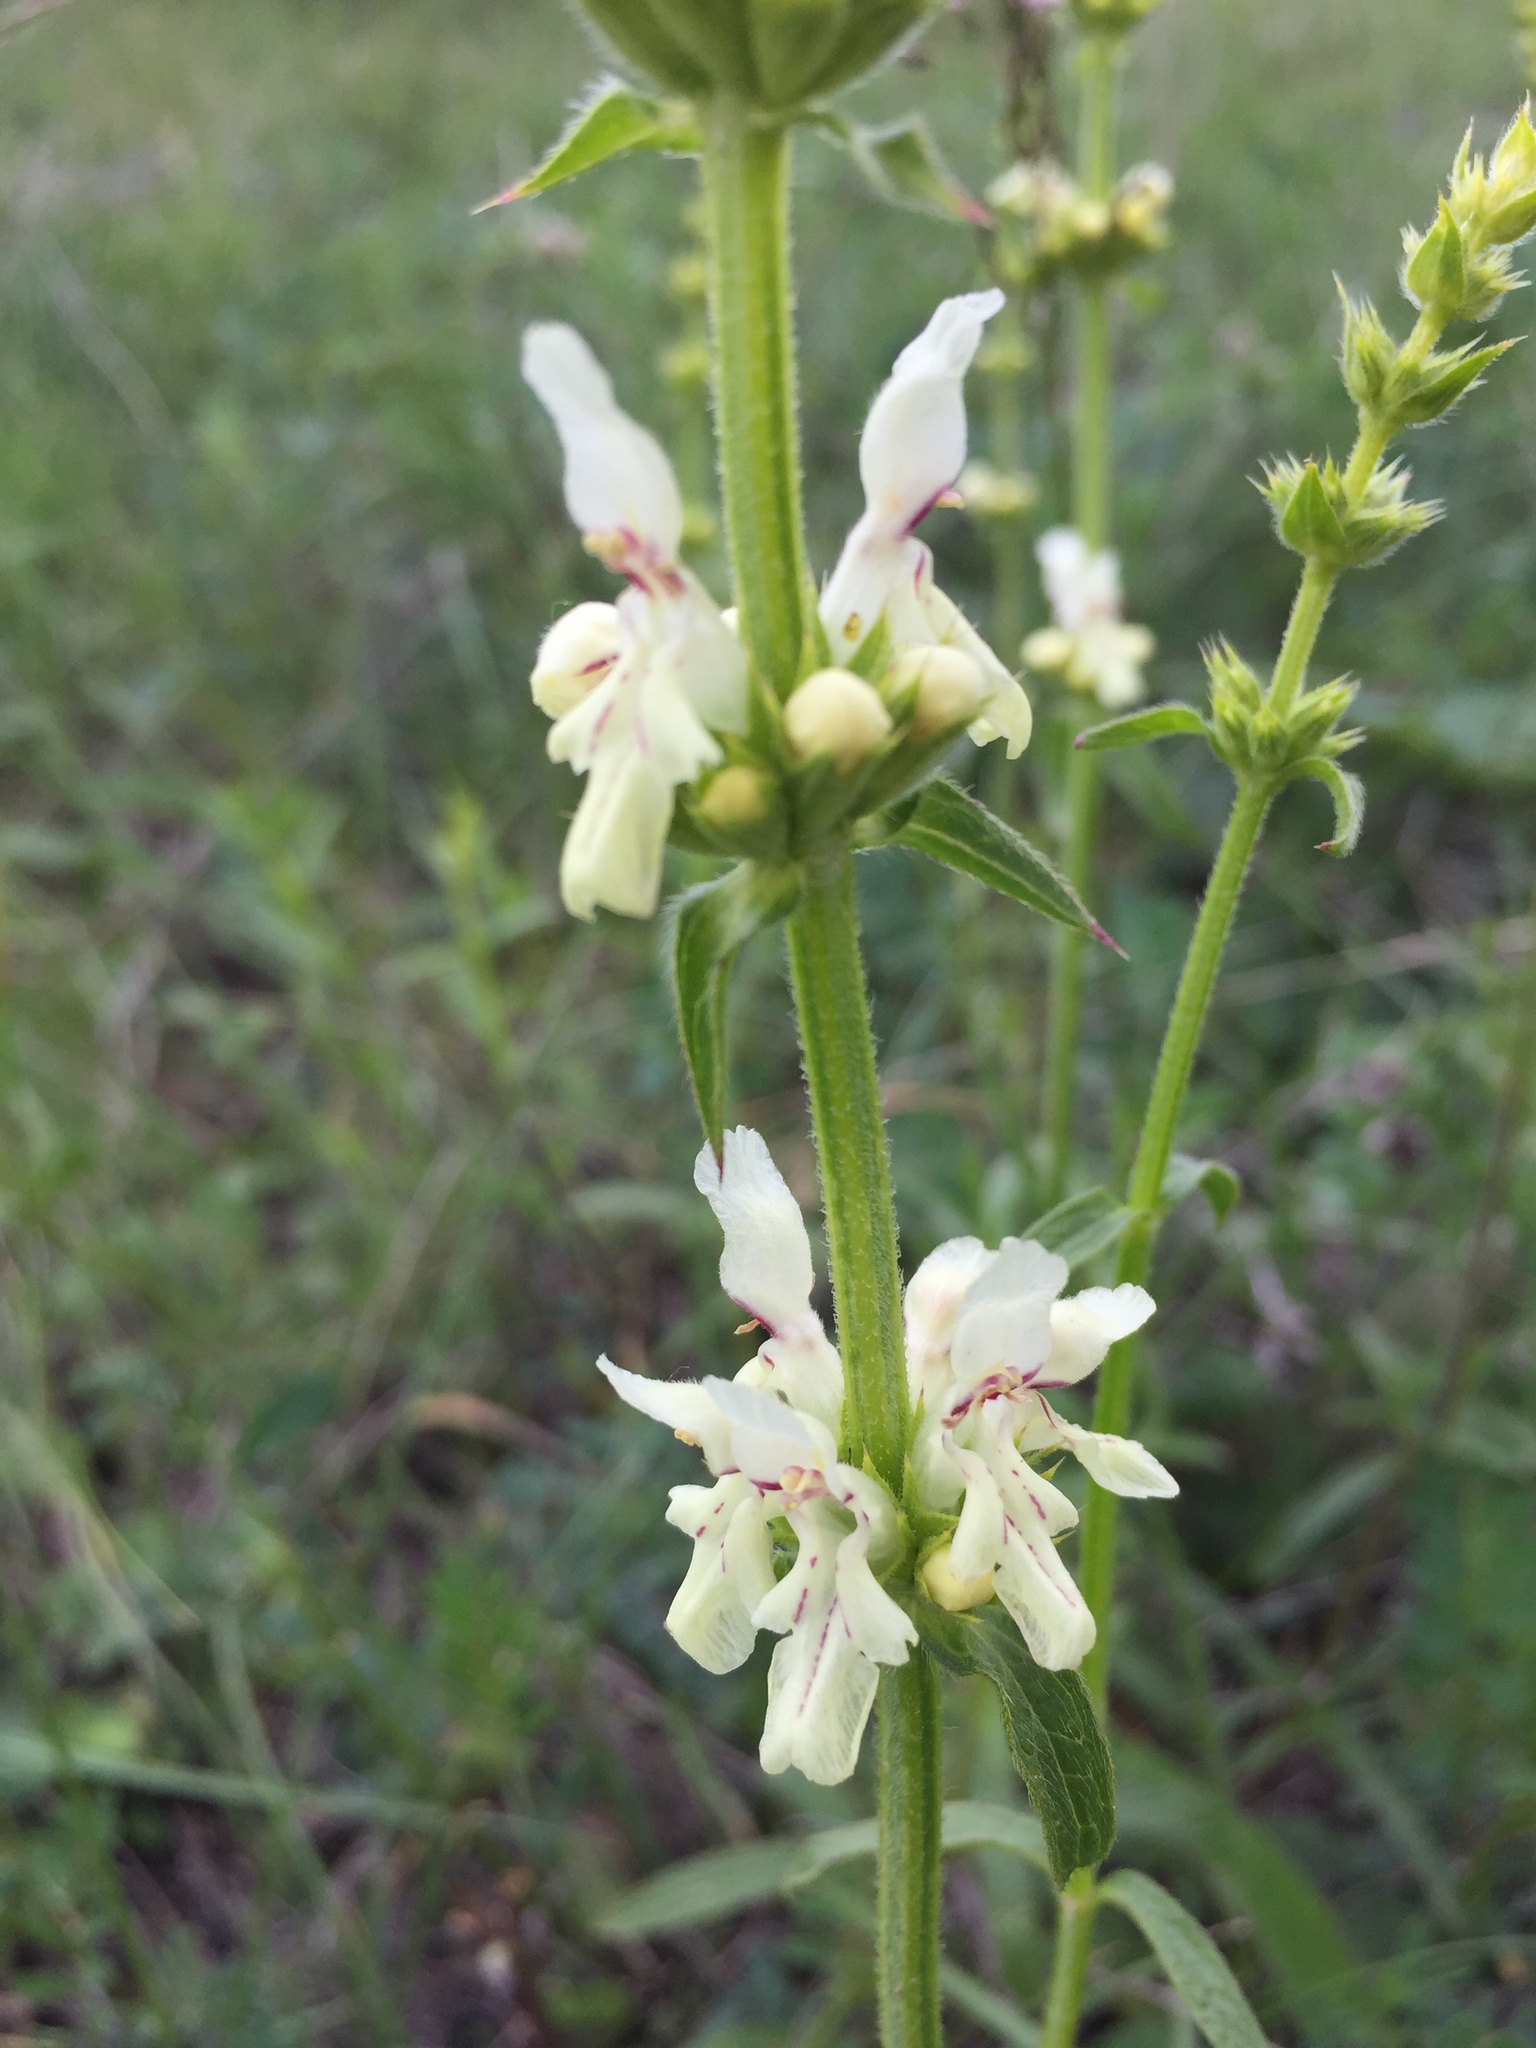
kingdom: Plantae
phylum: Tracheophyta
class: Magnoliopsida
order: Lamiales
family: Lamiaceae
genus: Stachys
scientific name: Stachys recta
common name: Perennial yellow-woundwort
